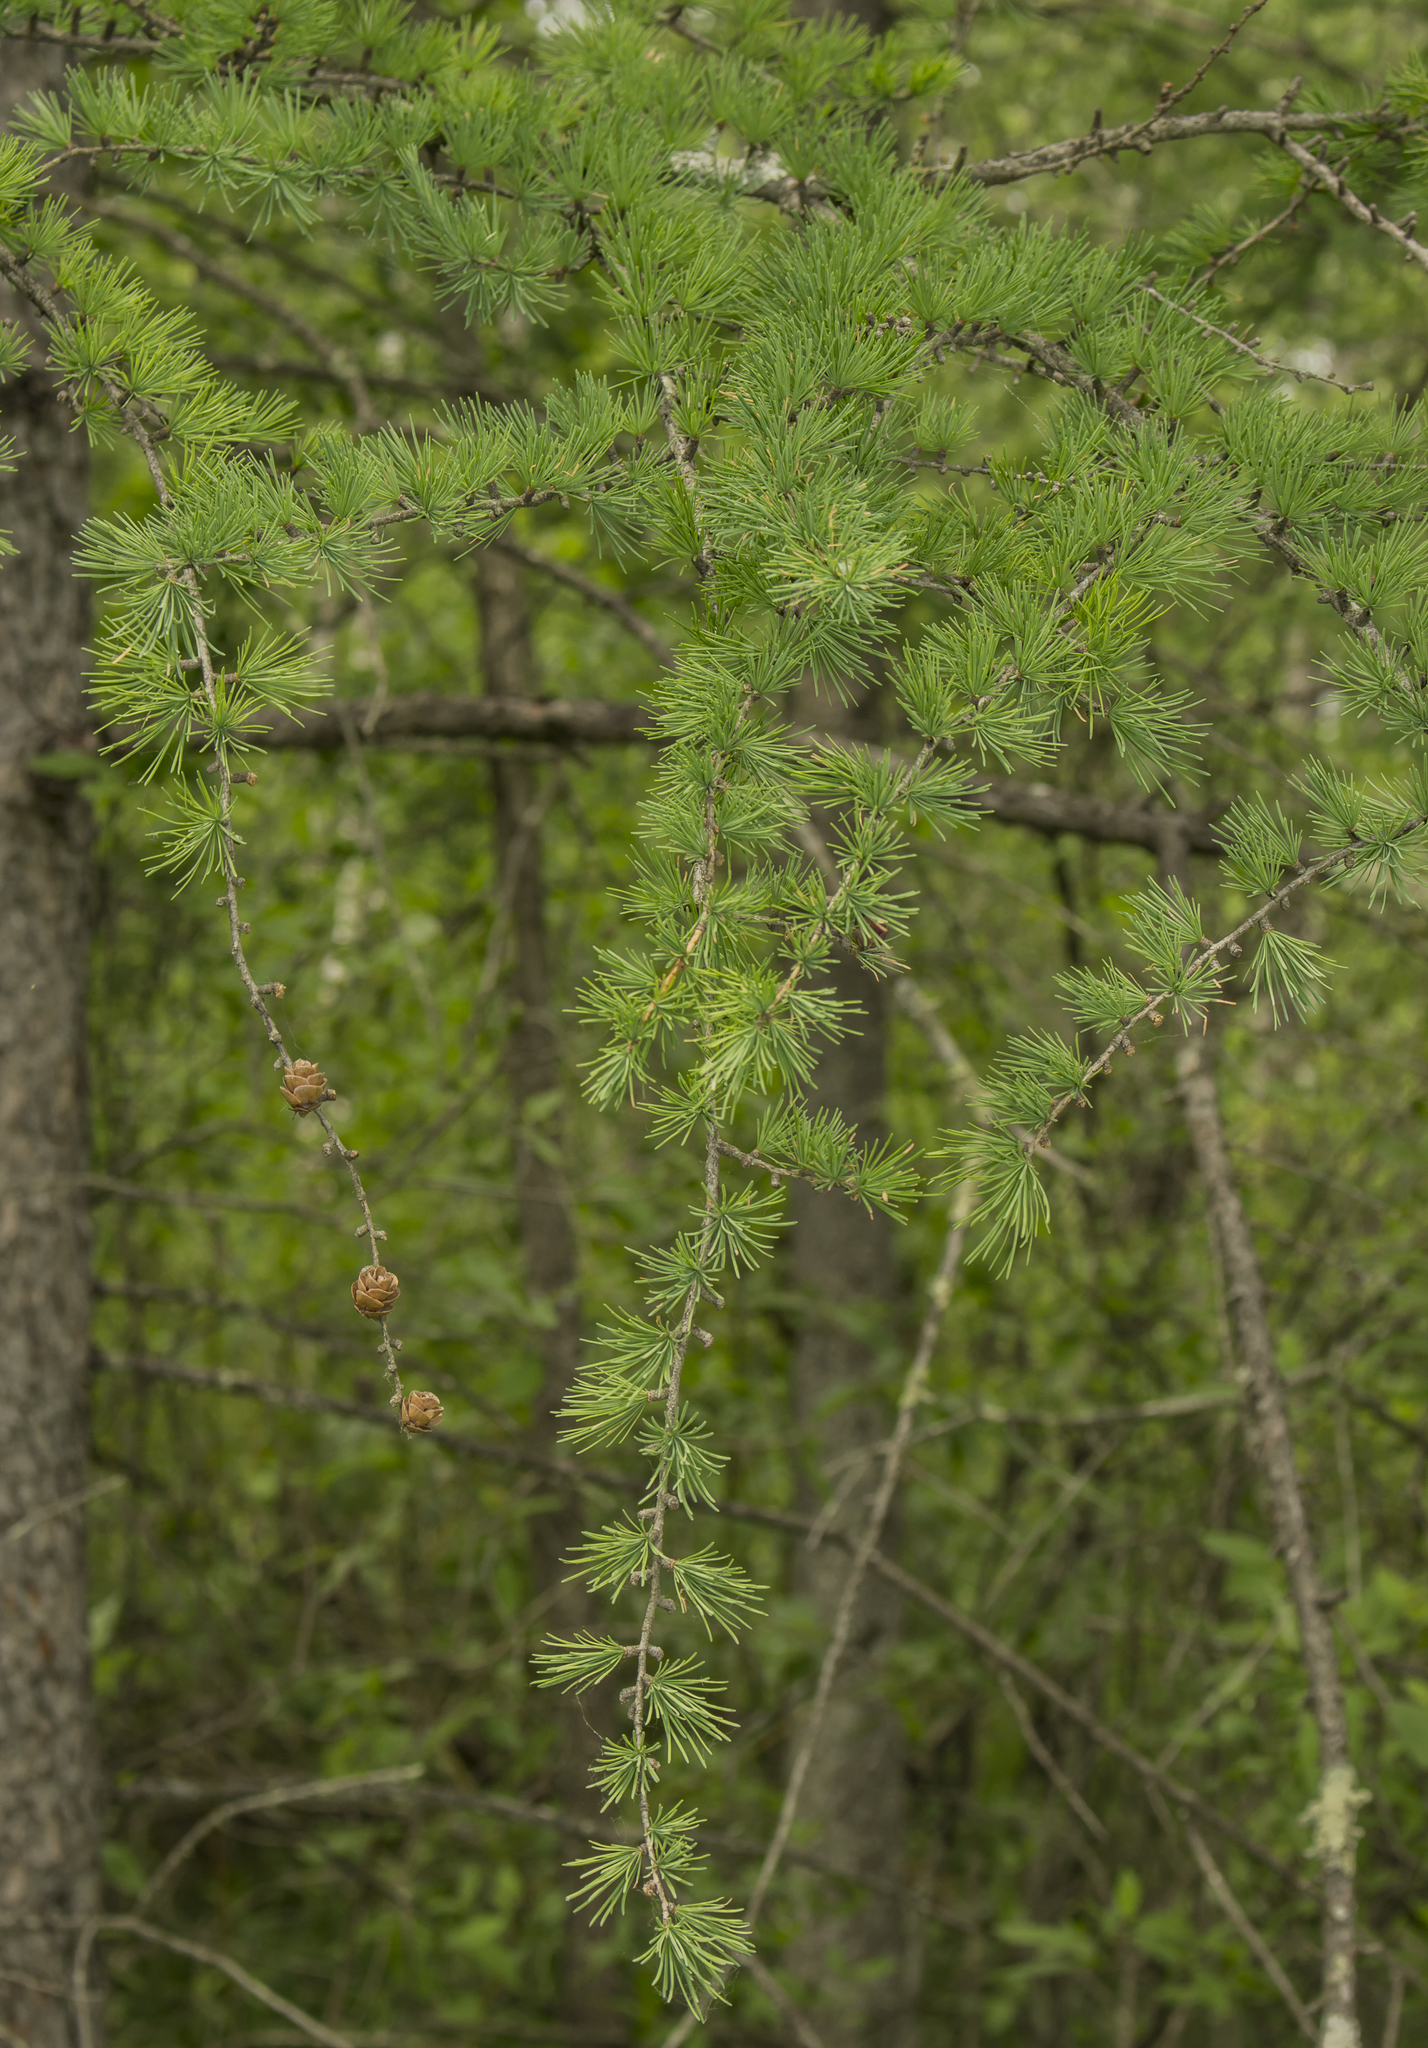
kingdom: Plantae
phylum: Tracheophyta
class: Pinopsida
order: Pinales
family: Pinaceae
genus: Larix
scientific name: Larix laricina
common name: American larch
